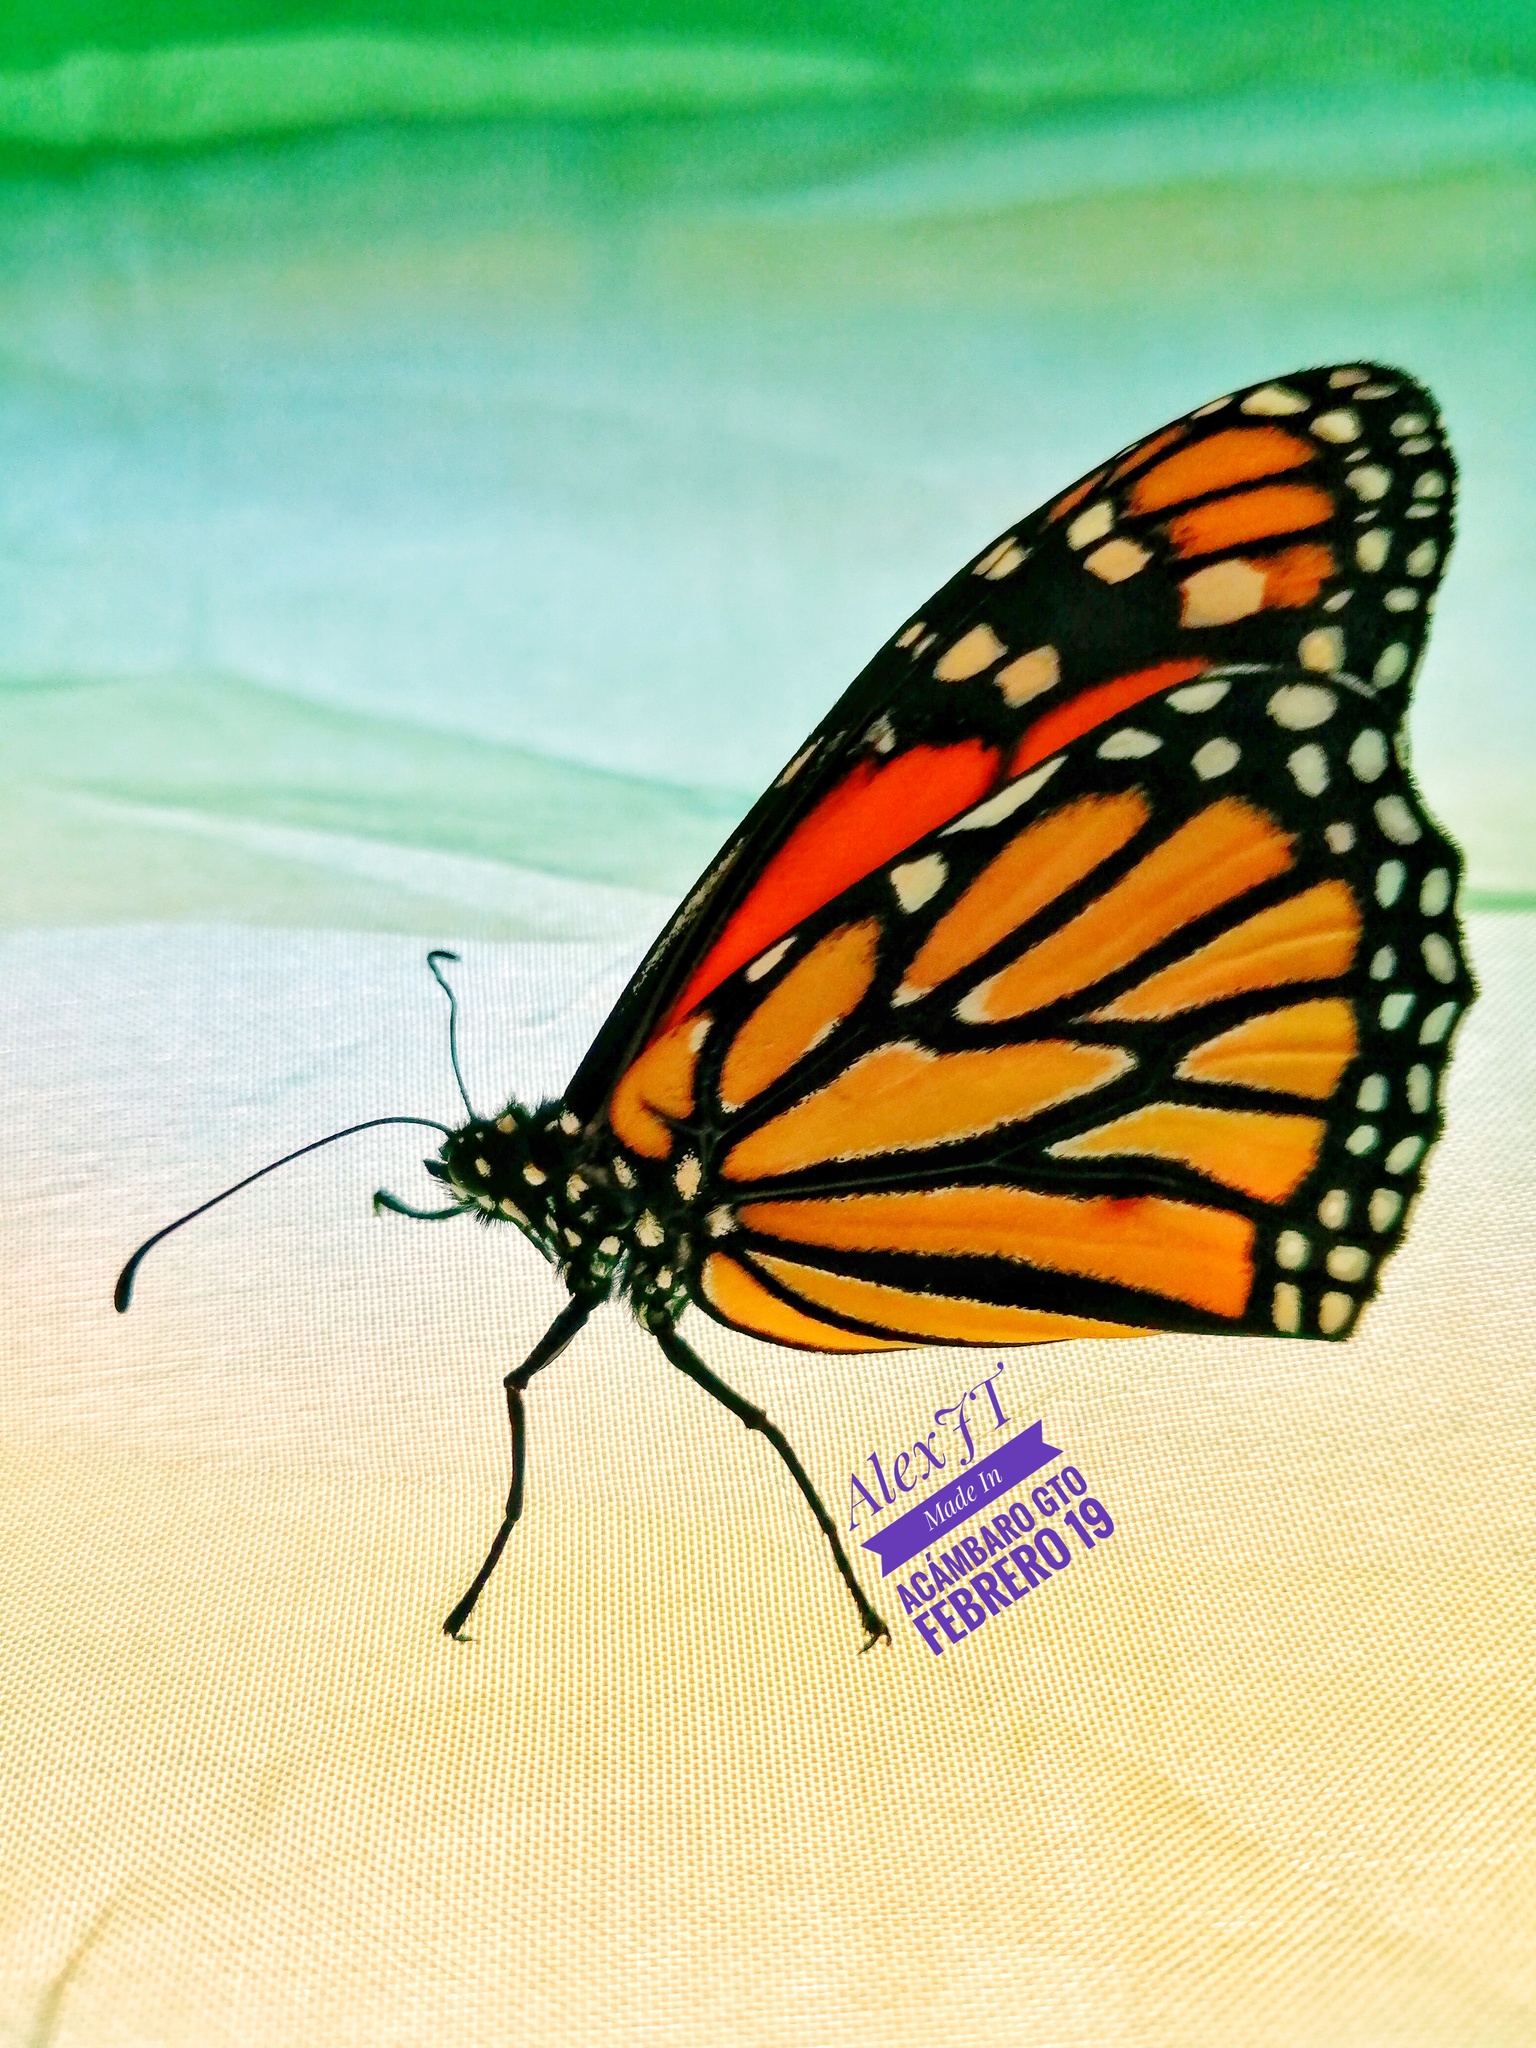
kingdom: Animalia
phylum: Arthropoda
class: Insecta
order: Lepidoptera
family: Nymphalidae
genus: Danaus
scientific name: Danaus plexippus
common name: Monarch
